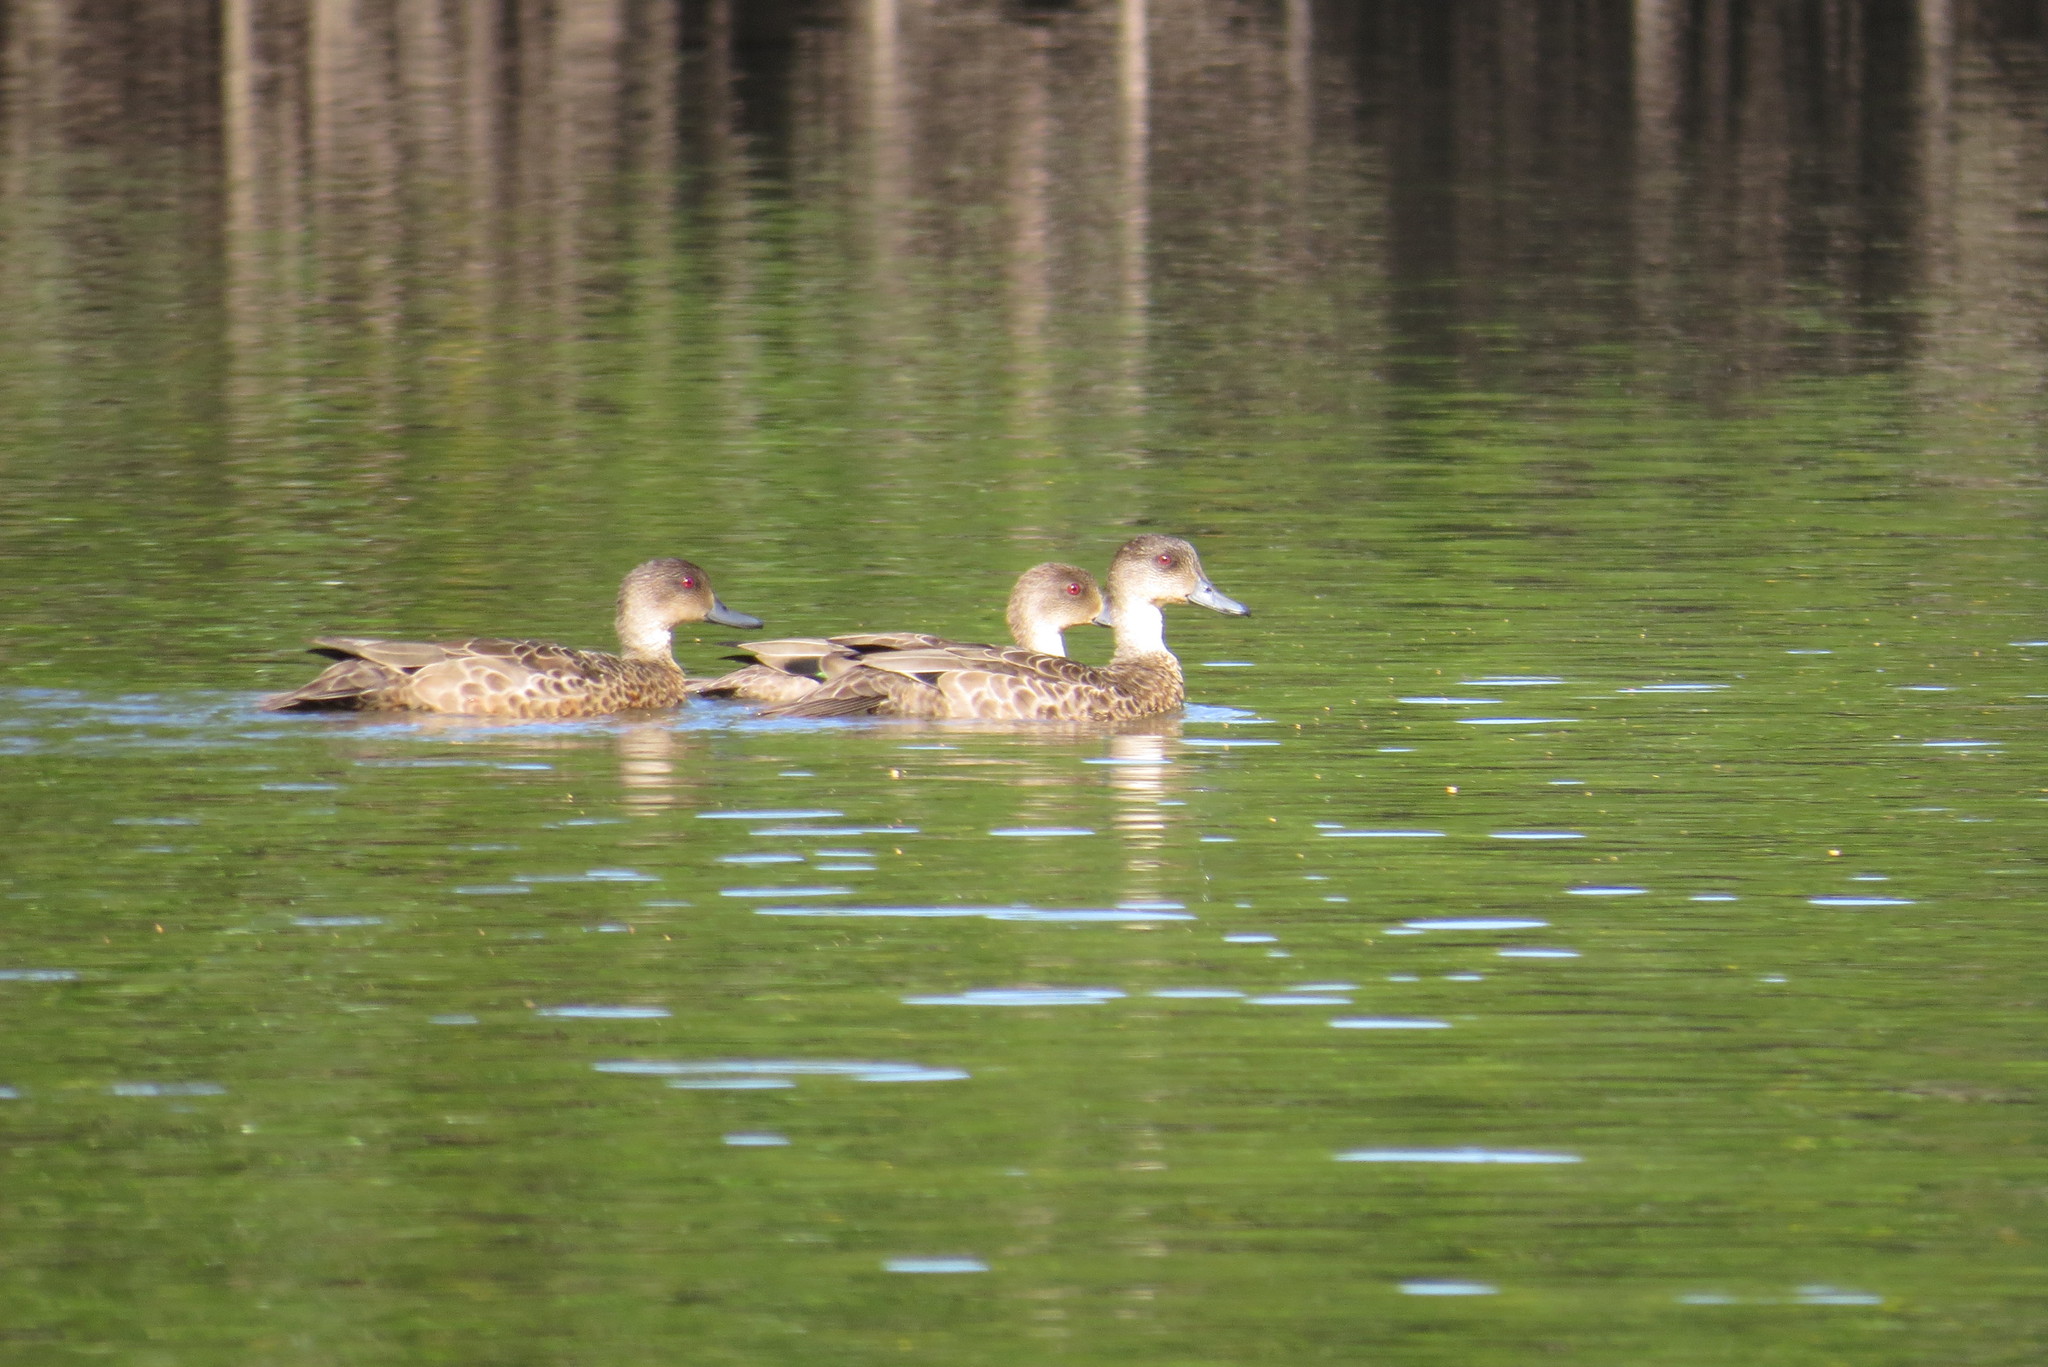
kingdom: Animalia
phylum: Chordata
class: Aves
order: Anseriformes
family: Anatidae
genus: Anas
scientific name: Anas gracilis
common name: Grey teal
